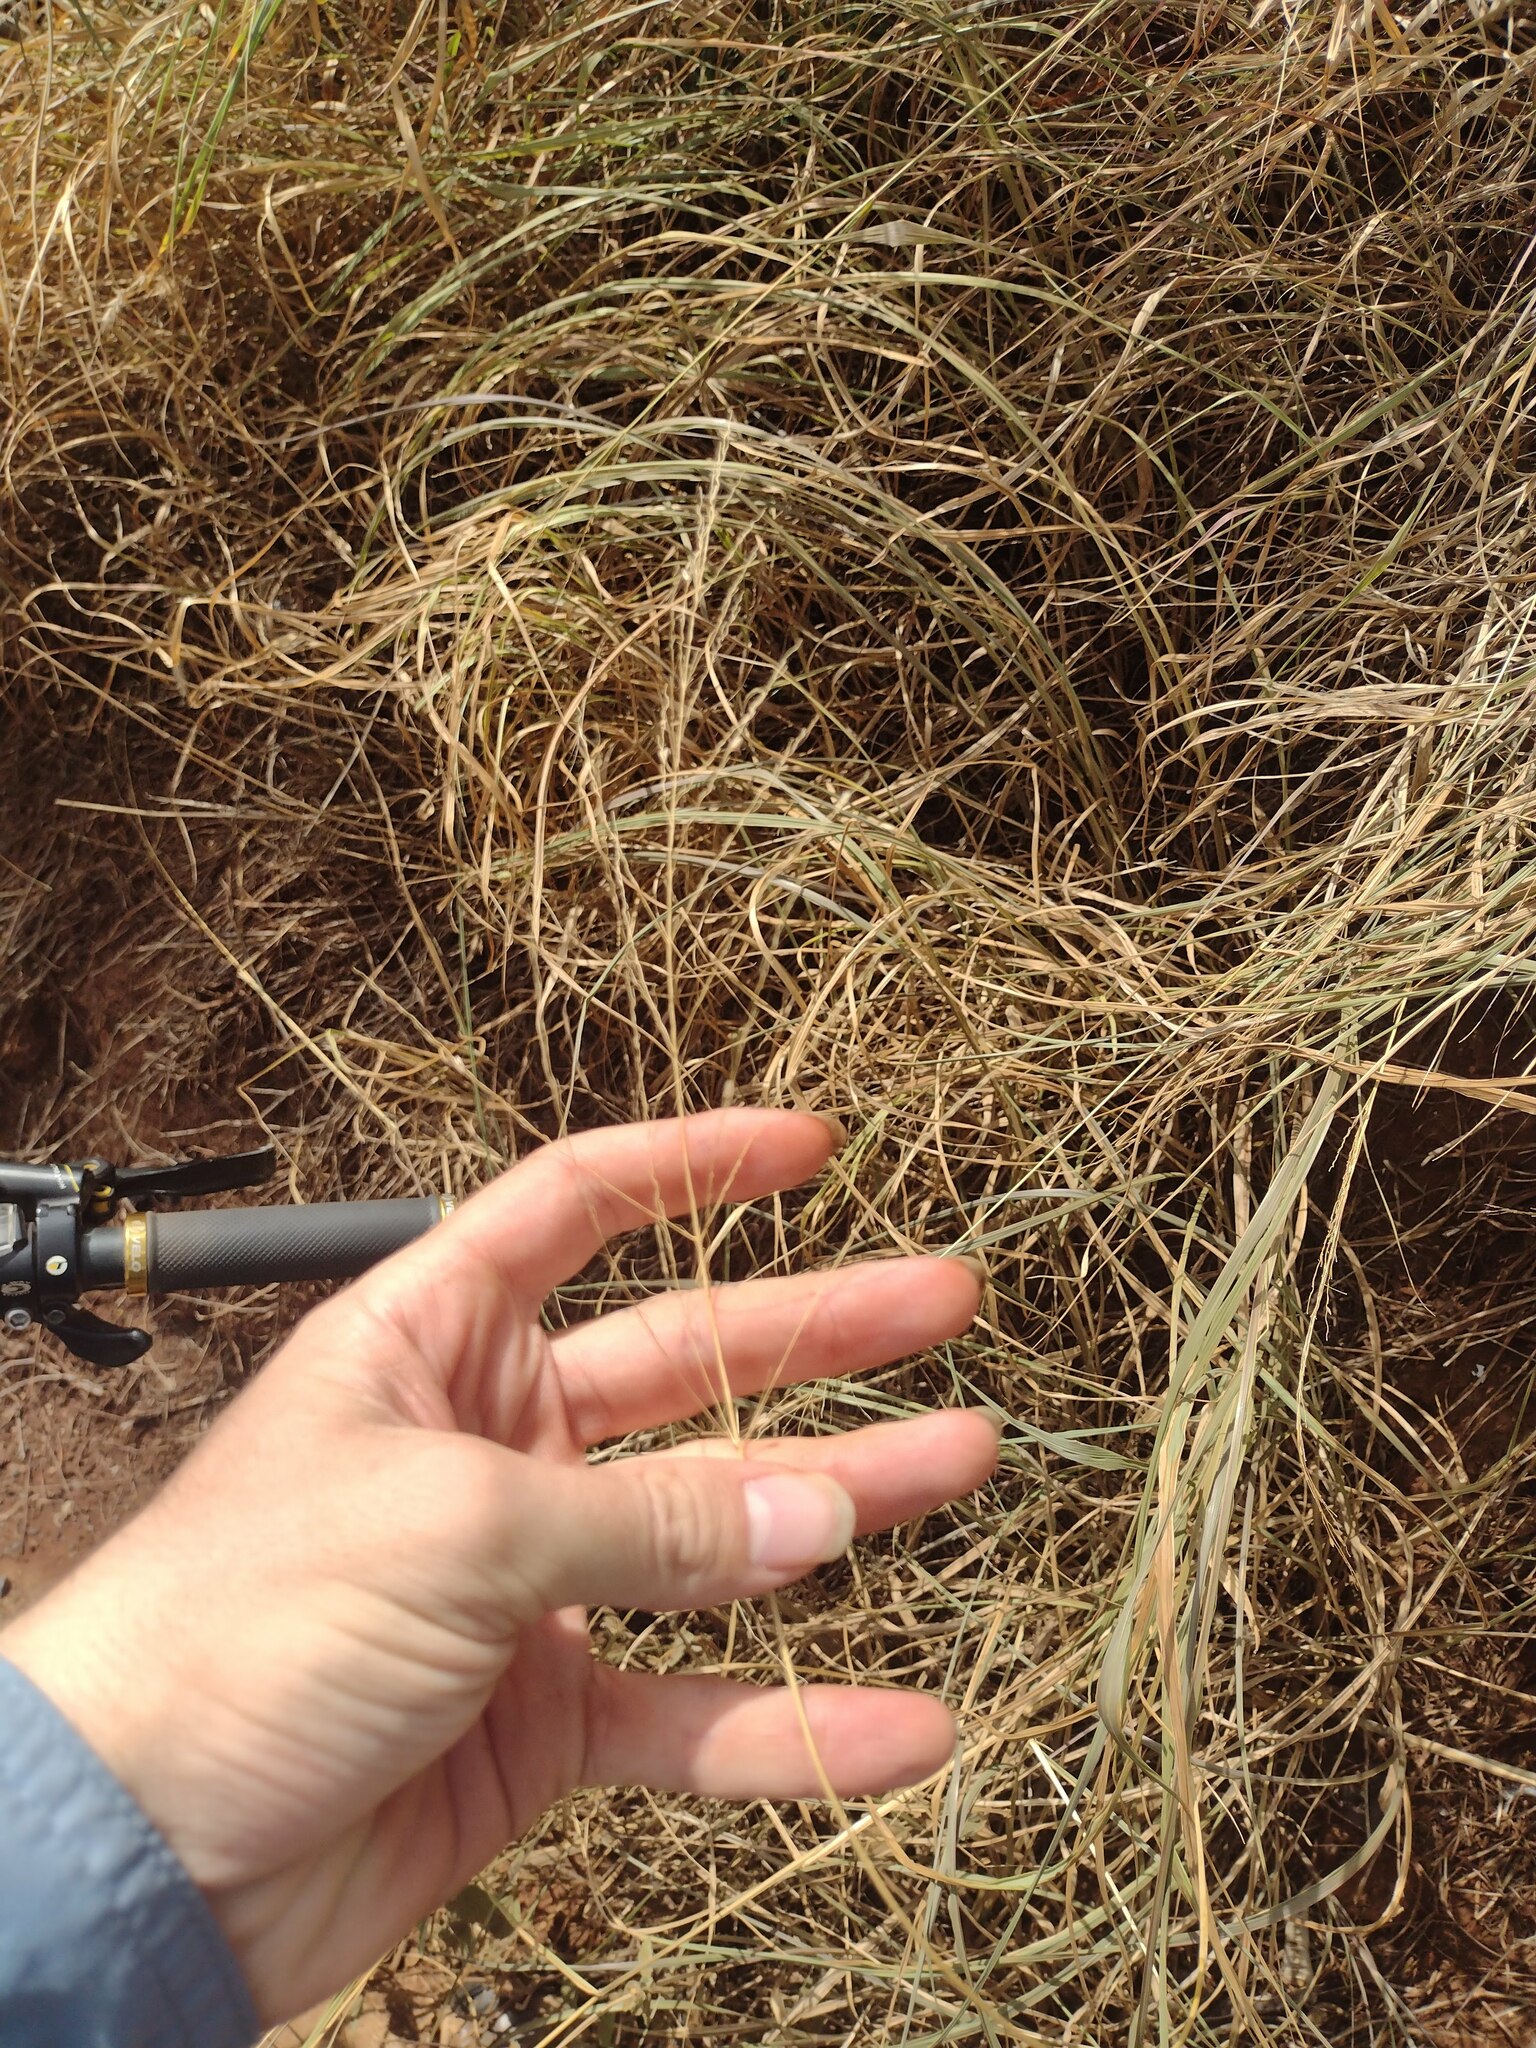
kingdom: Plantae
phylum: Tracheophyta
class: Liliopsida
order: Poales
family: Poaceae
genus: Megathyrsus
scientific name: Megathyrsus maximus
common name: Guineagrass
